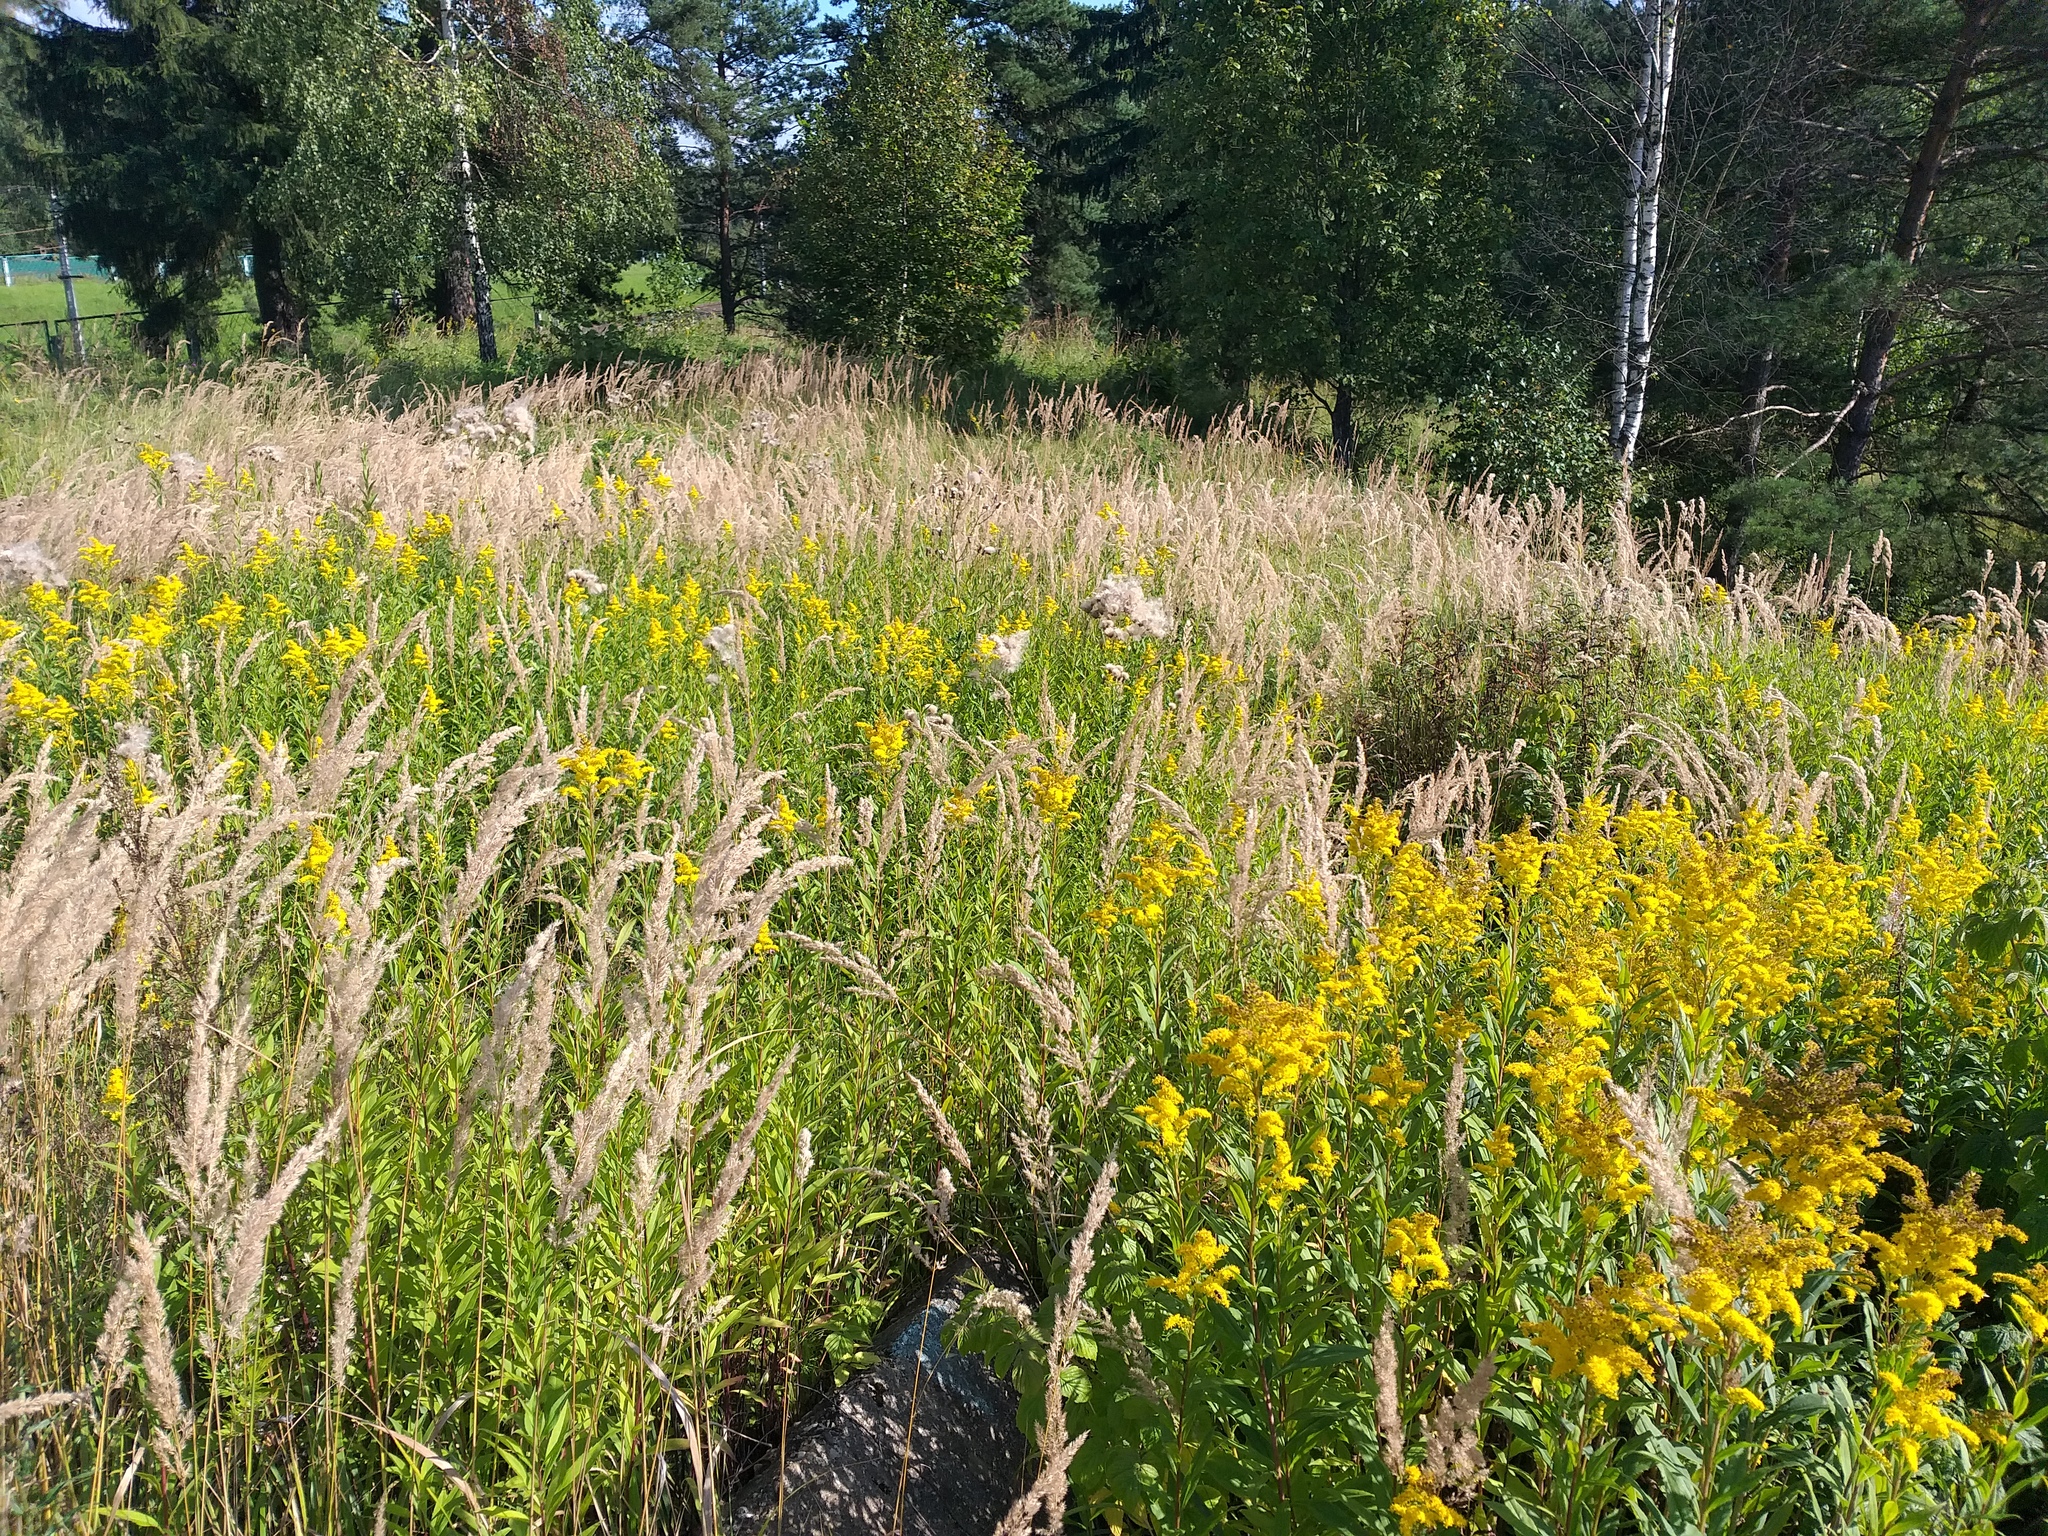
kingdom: Plantae
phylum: Tracheophyta
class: Magnoliopsida
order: Asterales
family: Asteraceae
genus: Solidago
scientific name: Solidago gigantea
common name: Giant goldenrod
